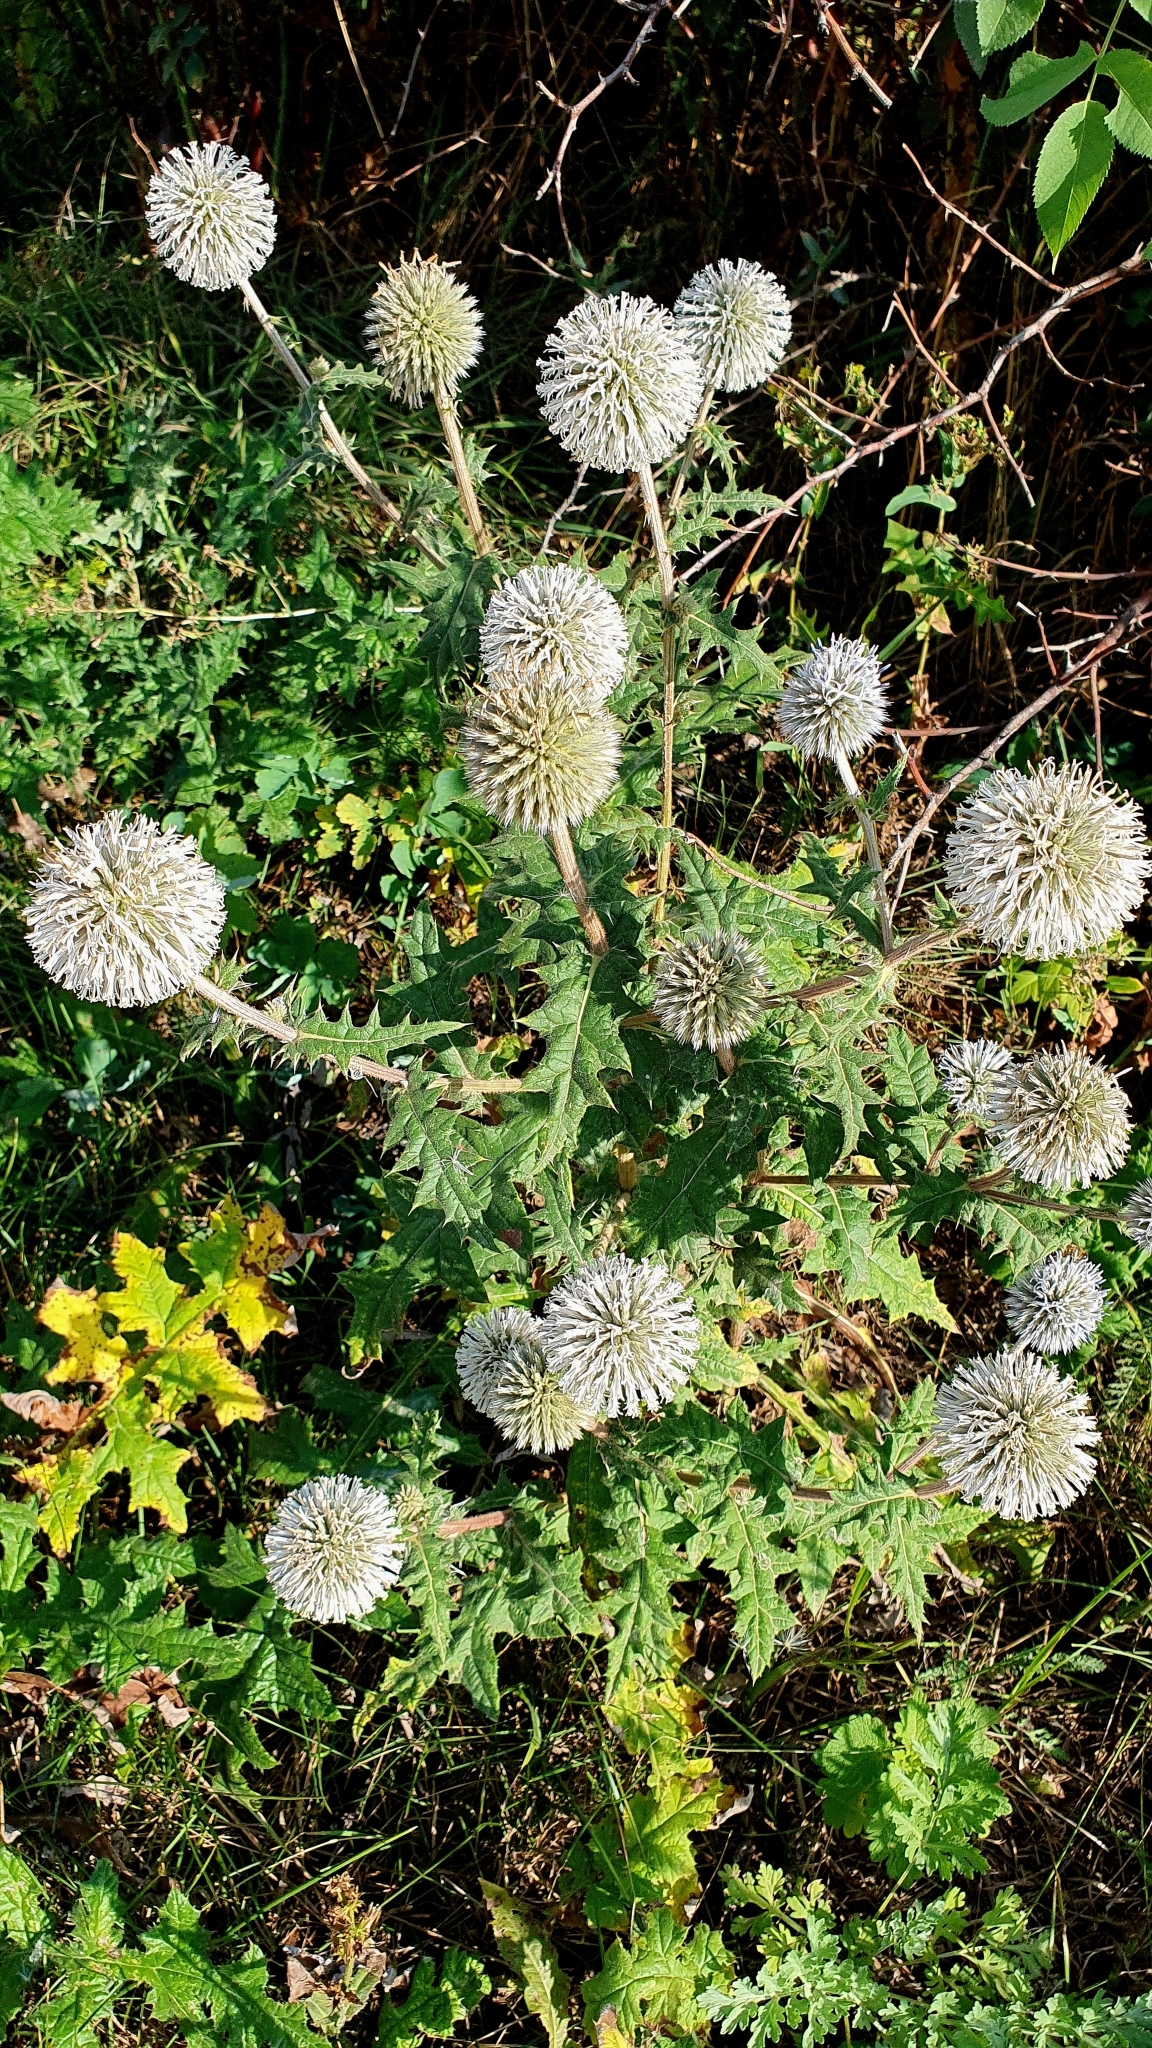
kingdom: Plantae
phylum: Tracheophyta
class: Magnoliopsida
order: Asterales
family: Asteraceae
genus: Echinops
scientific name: Echinops sphaerocephalus
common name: Glandular globe-thistle
